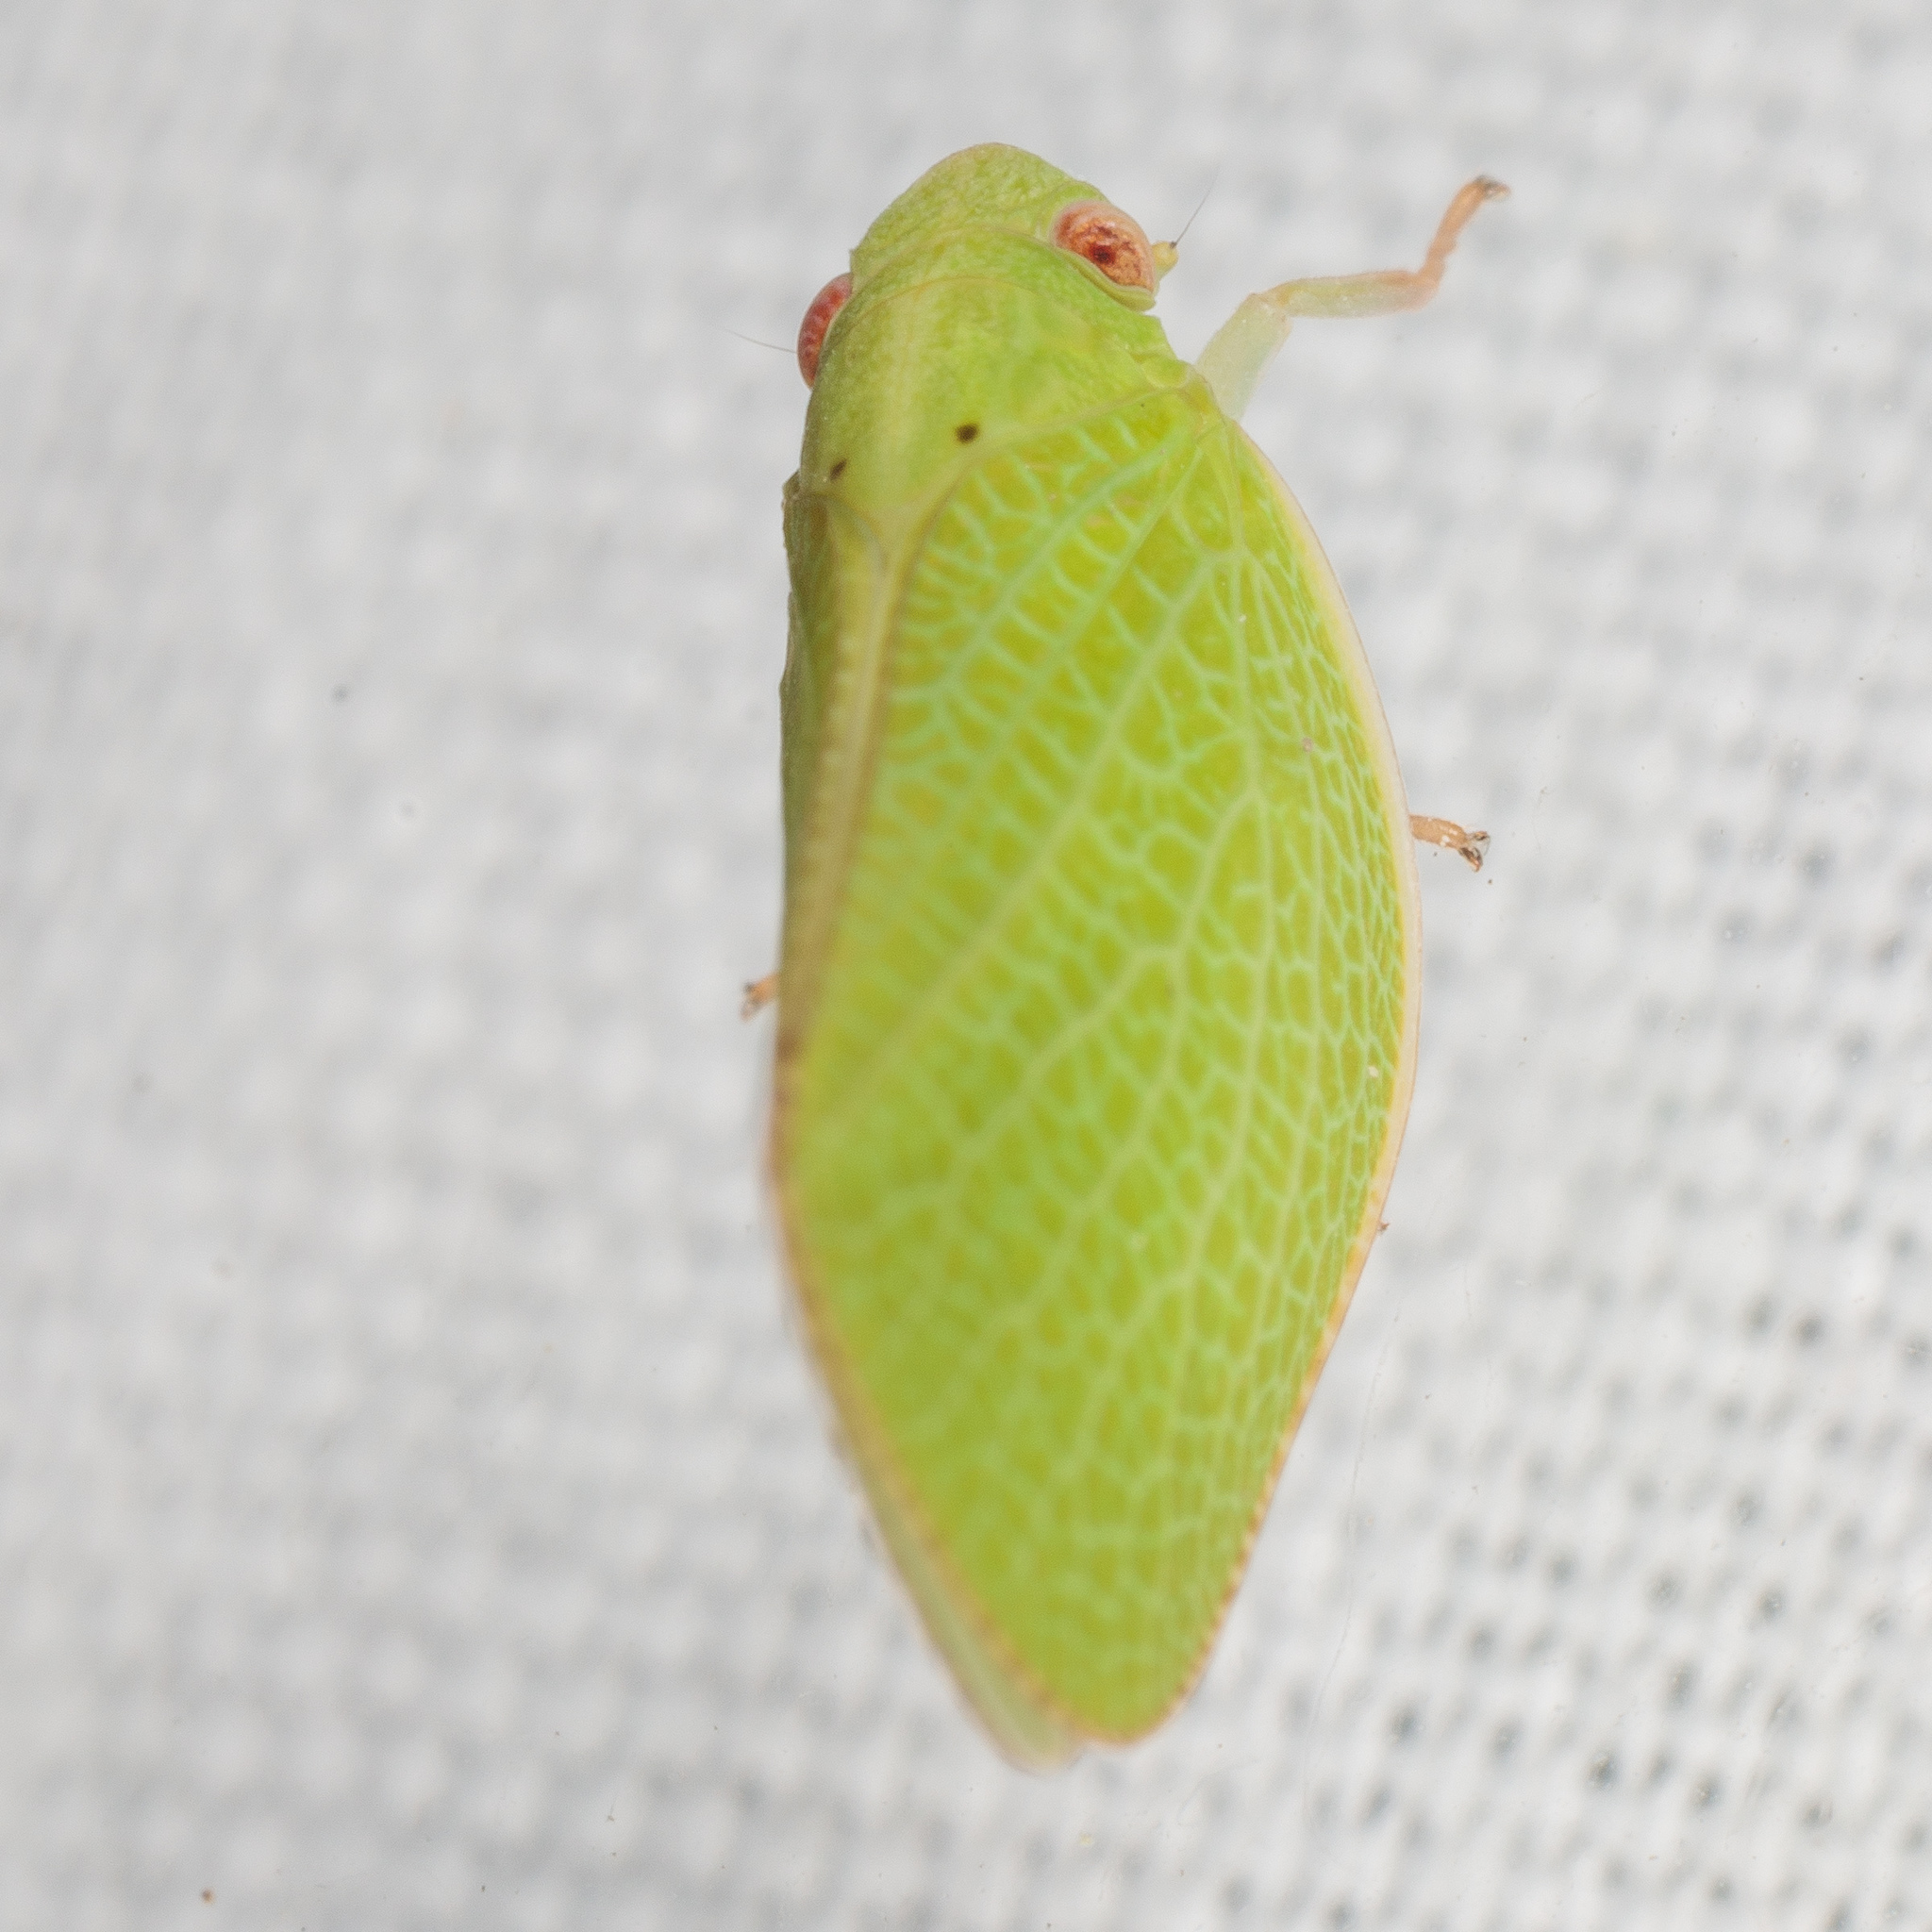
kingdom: Animalia
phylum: Arthropoda
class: Insecta
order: Hemiptera
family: Acanaloniidae
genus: Acanalonia
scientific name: Acanalonia conica
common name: Green cone-headed planthopper
